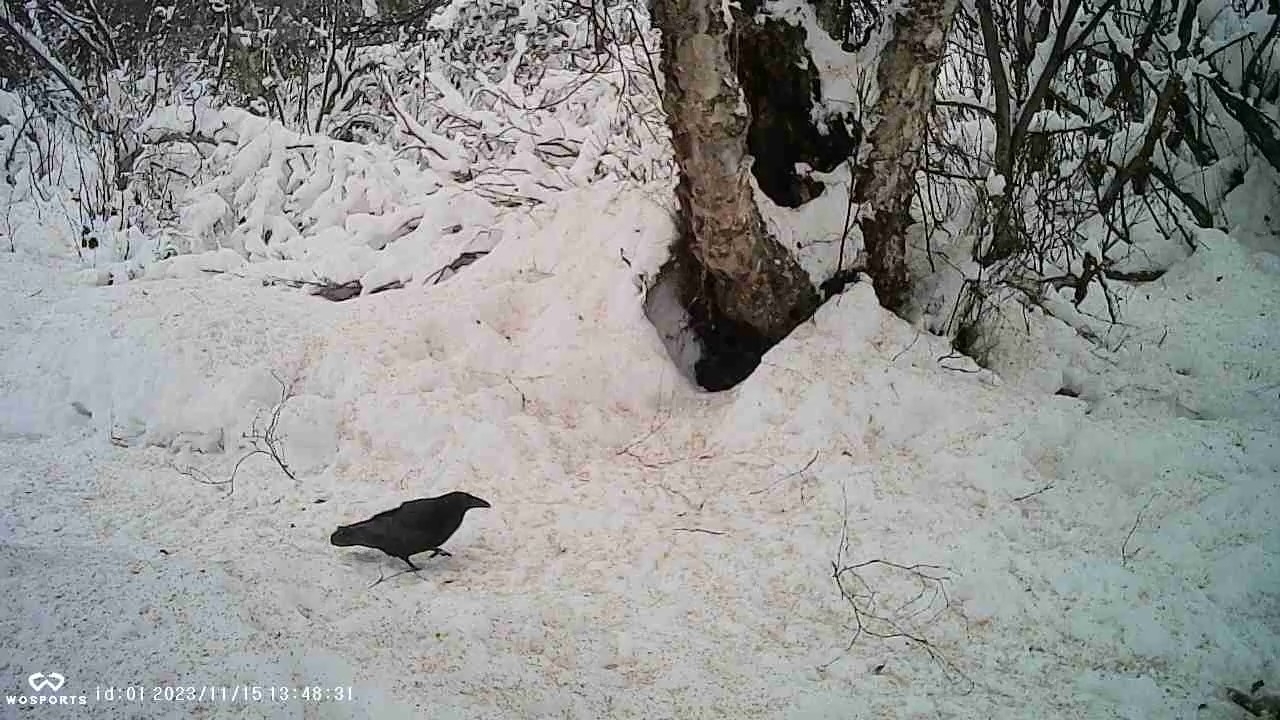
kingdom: Animalia
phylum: Chordata
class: Aves
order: Passeriformes
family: Corvidae
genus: Corvus
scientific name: Corvus corax
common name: Common raven
